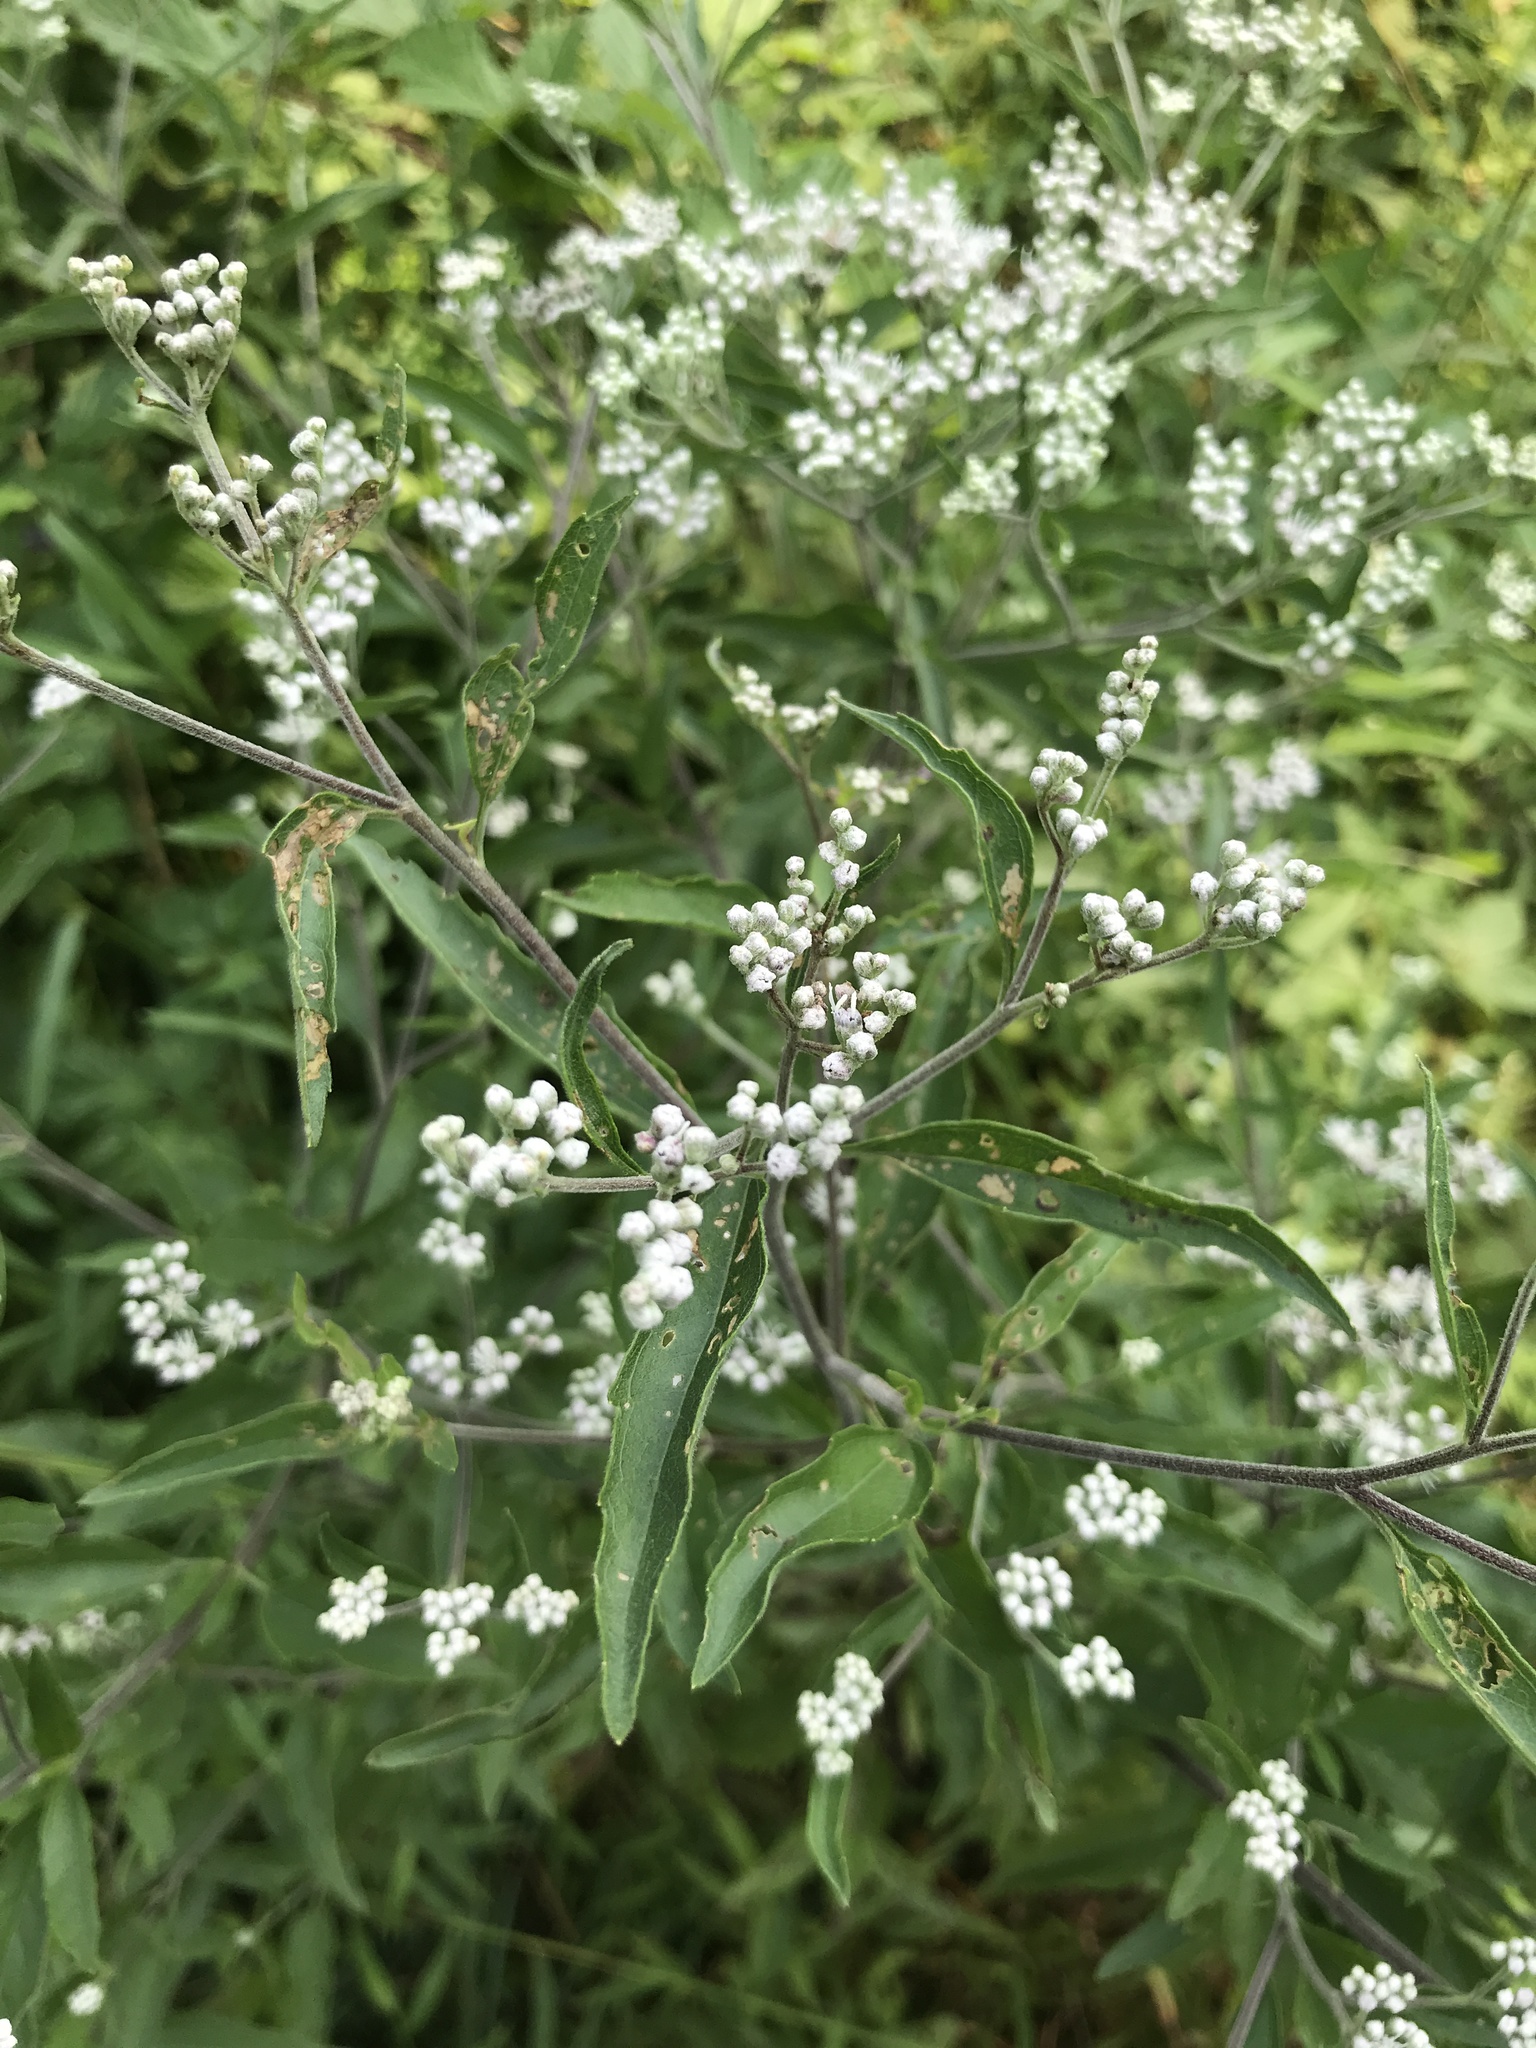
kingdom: Plantae
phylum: Tracheophyta
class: Magnoliopsida
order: Asterales
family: Asteraceae
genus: Eupatorium
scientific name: Eupatorium serotinum
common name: Late boneset
